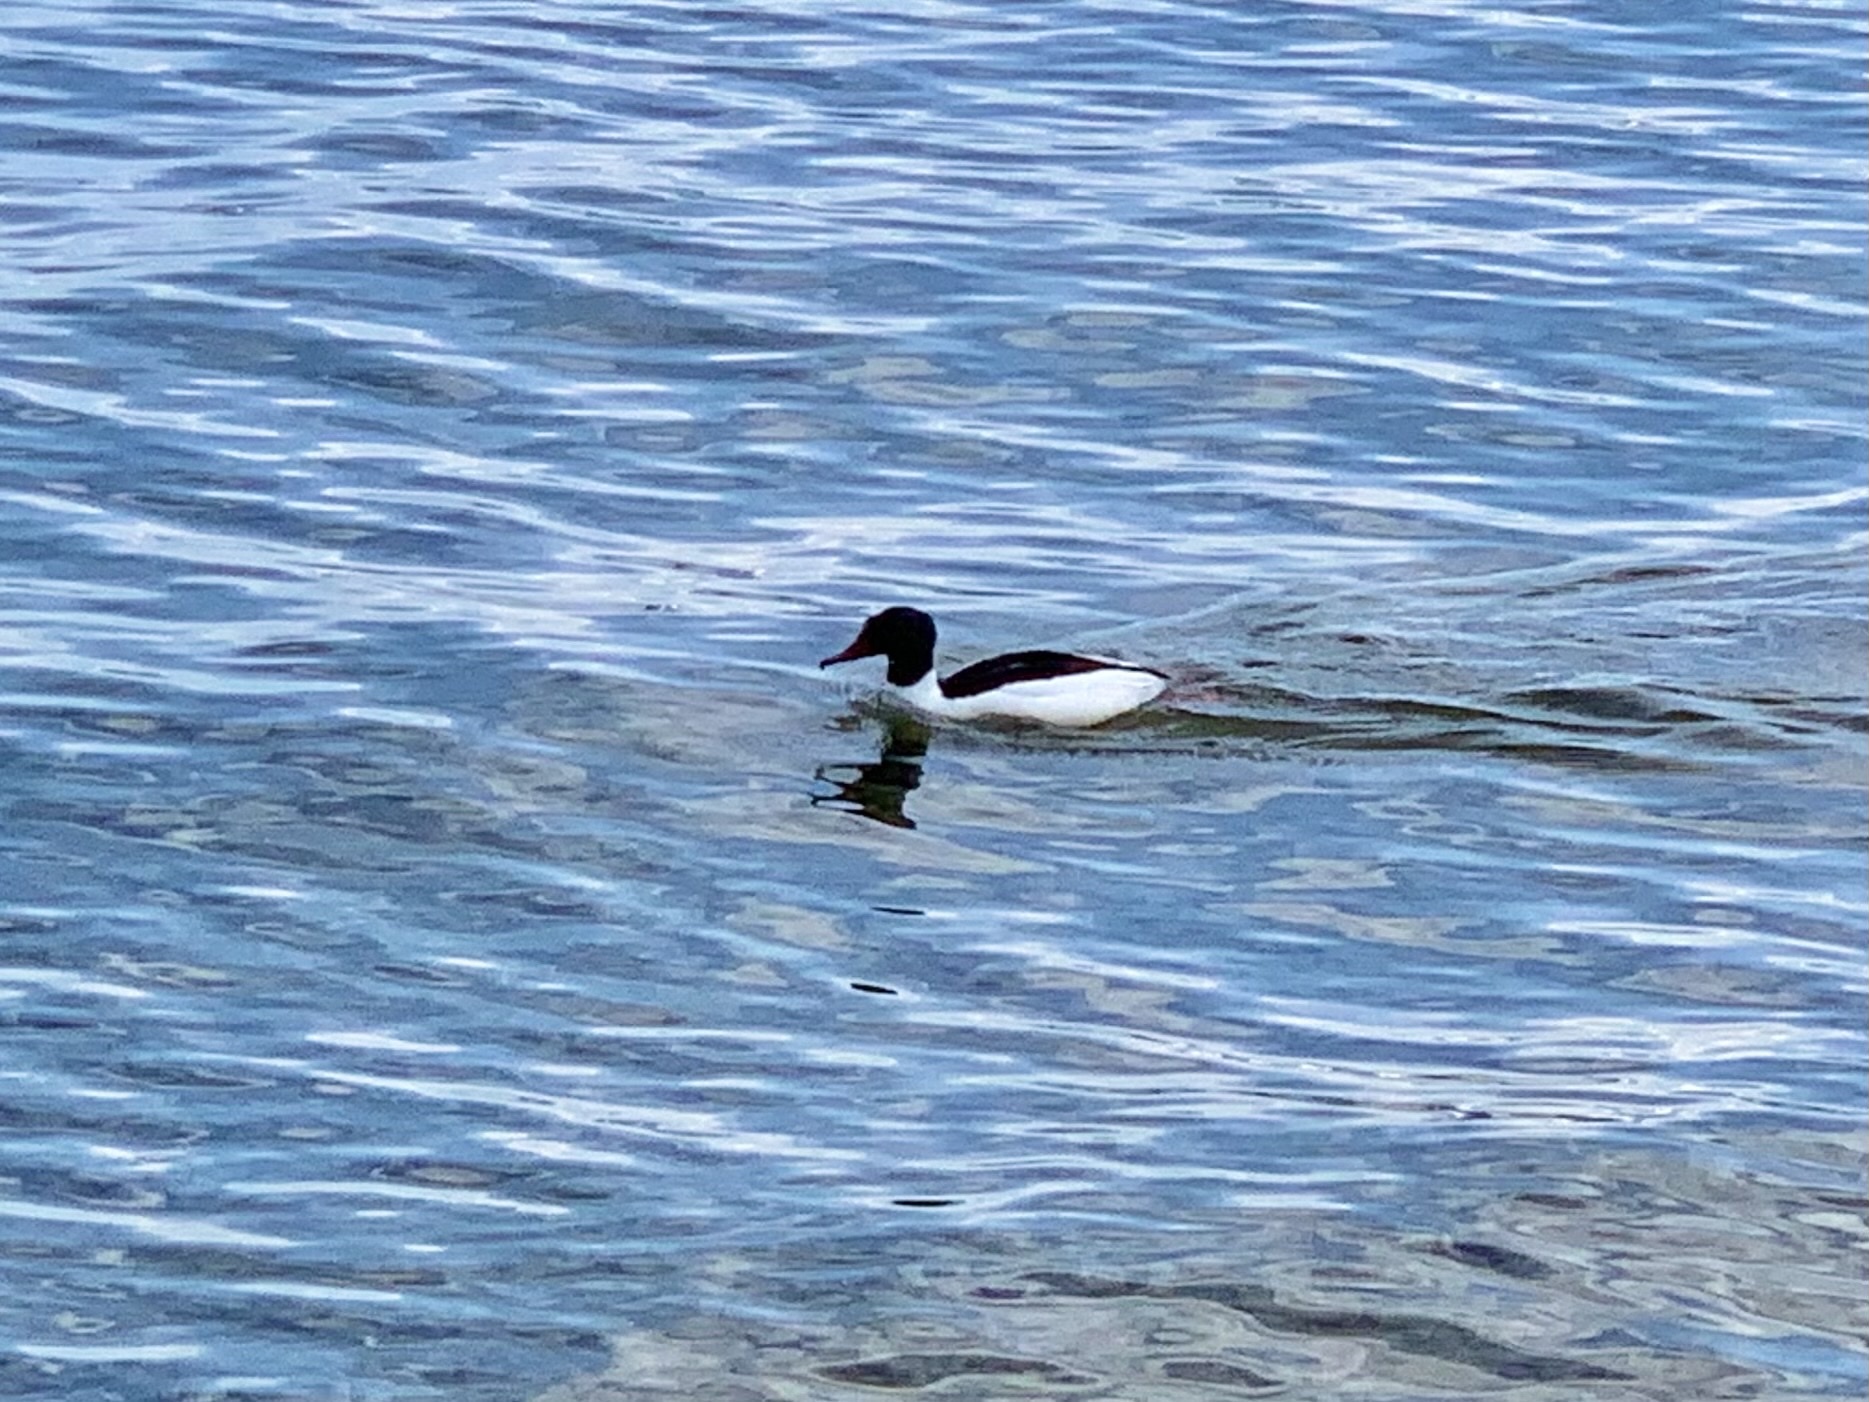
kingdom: Animalia
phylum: Chordata
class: Aves
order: Anseriformes
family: Anatidae
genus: Mergus
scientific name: Mergus merganser
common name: Common merganser
